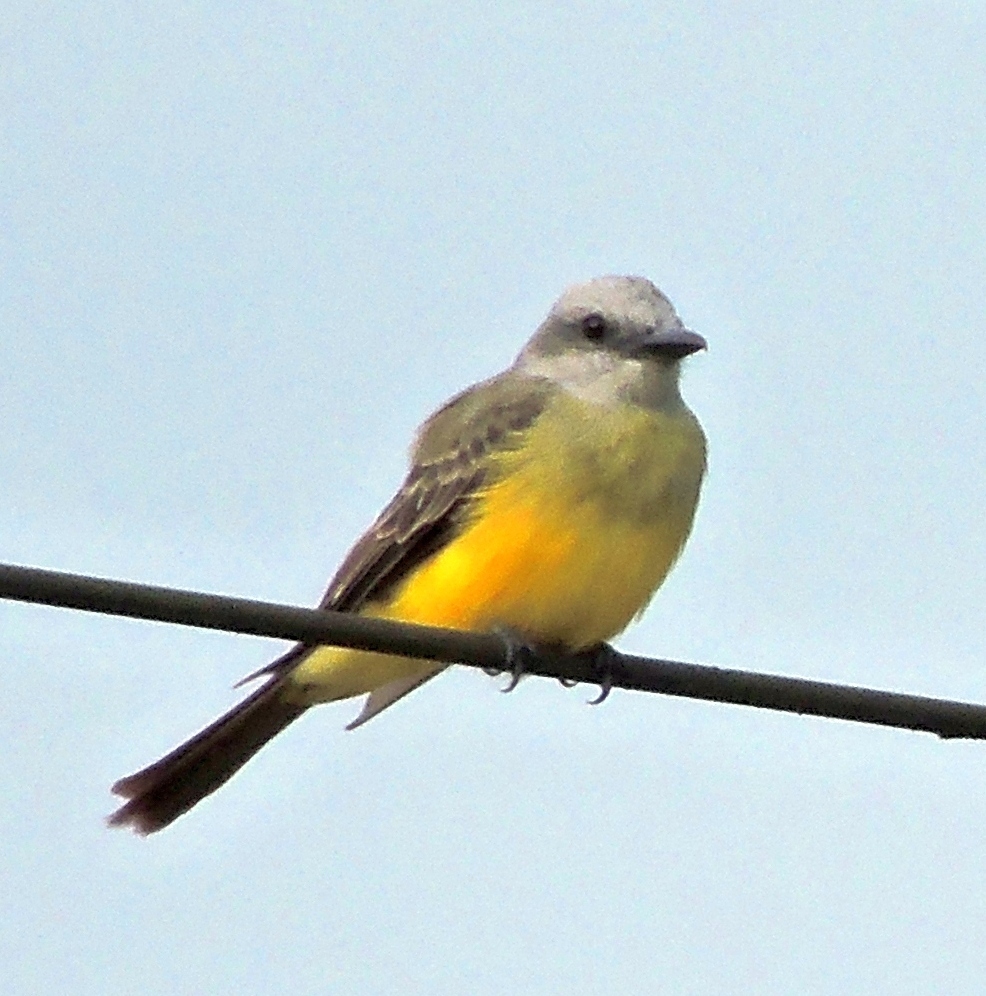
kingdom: Animalia
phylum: Chordata
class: Aves
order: Passeriformes
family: Tyrannidae
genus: Tyrannus
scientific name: Tyrannus melancholicus
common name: Tropical kingbird
